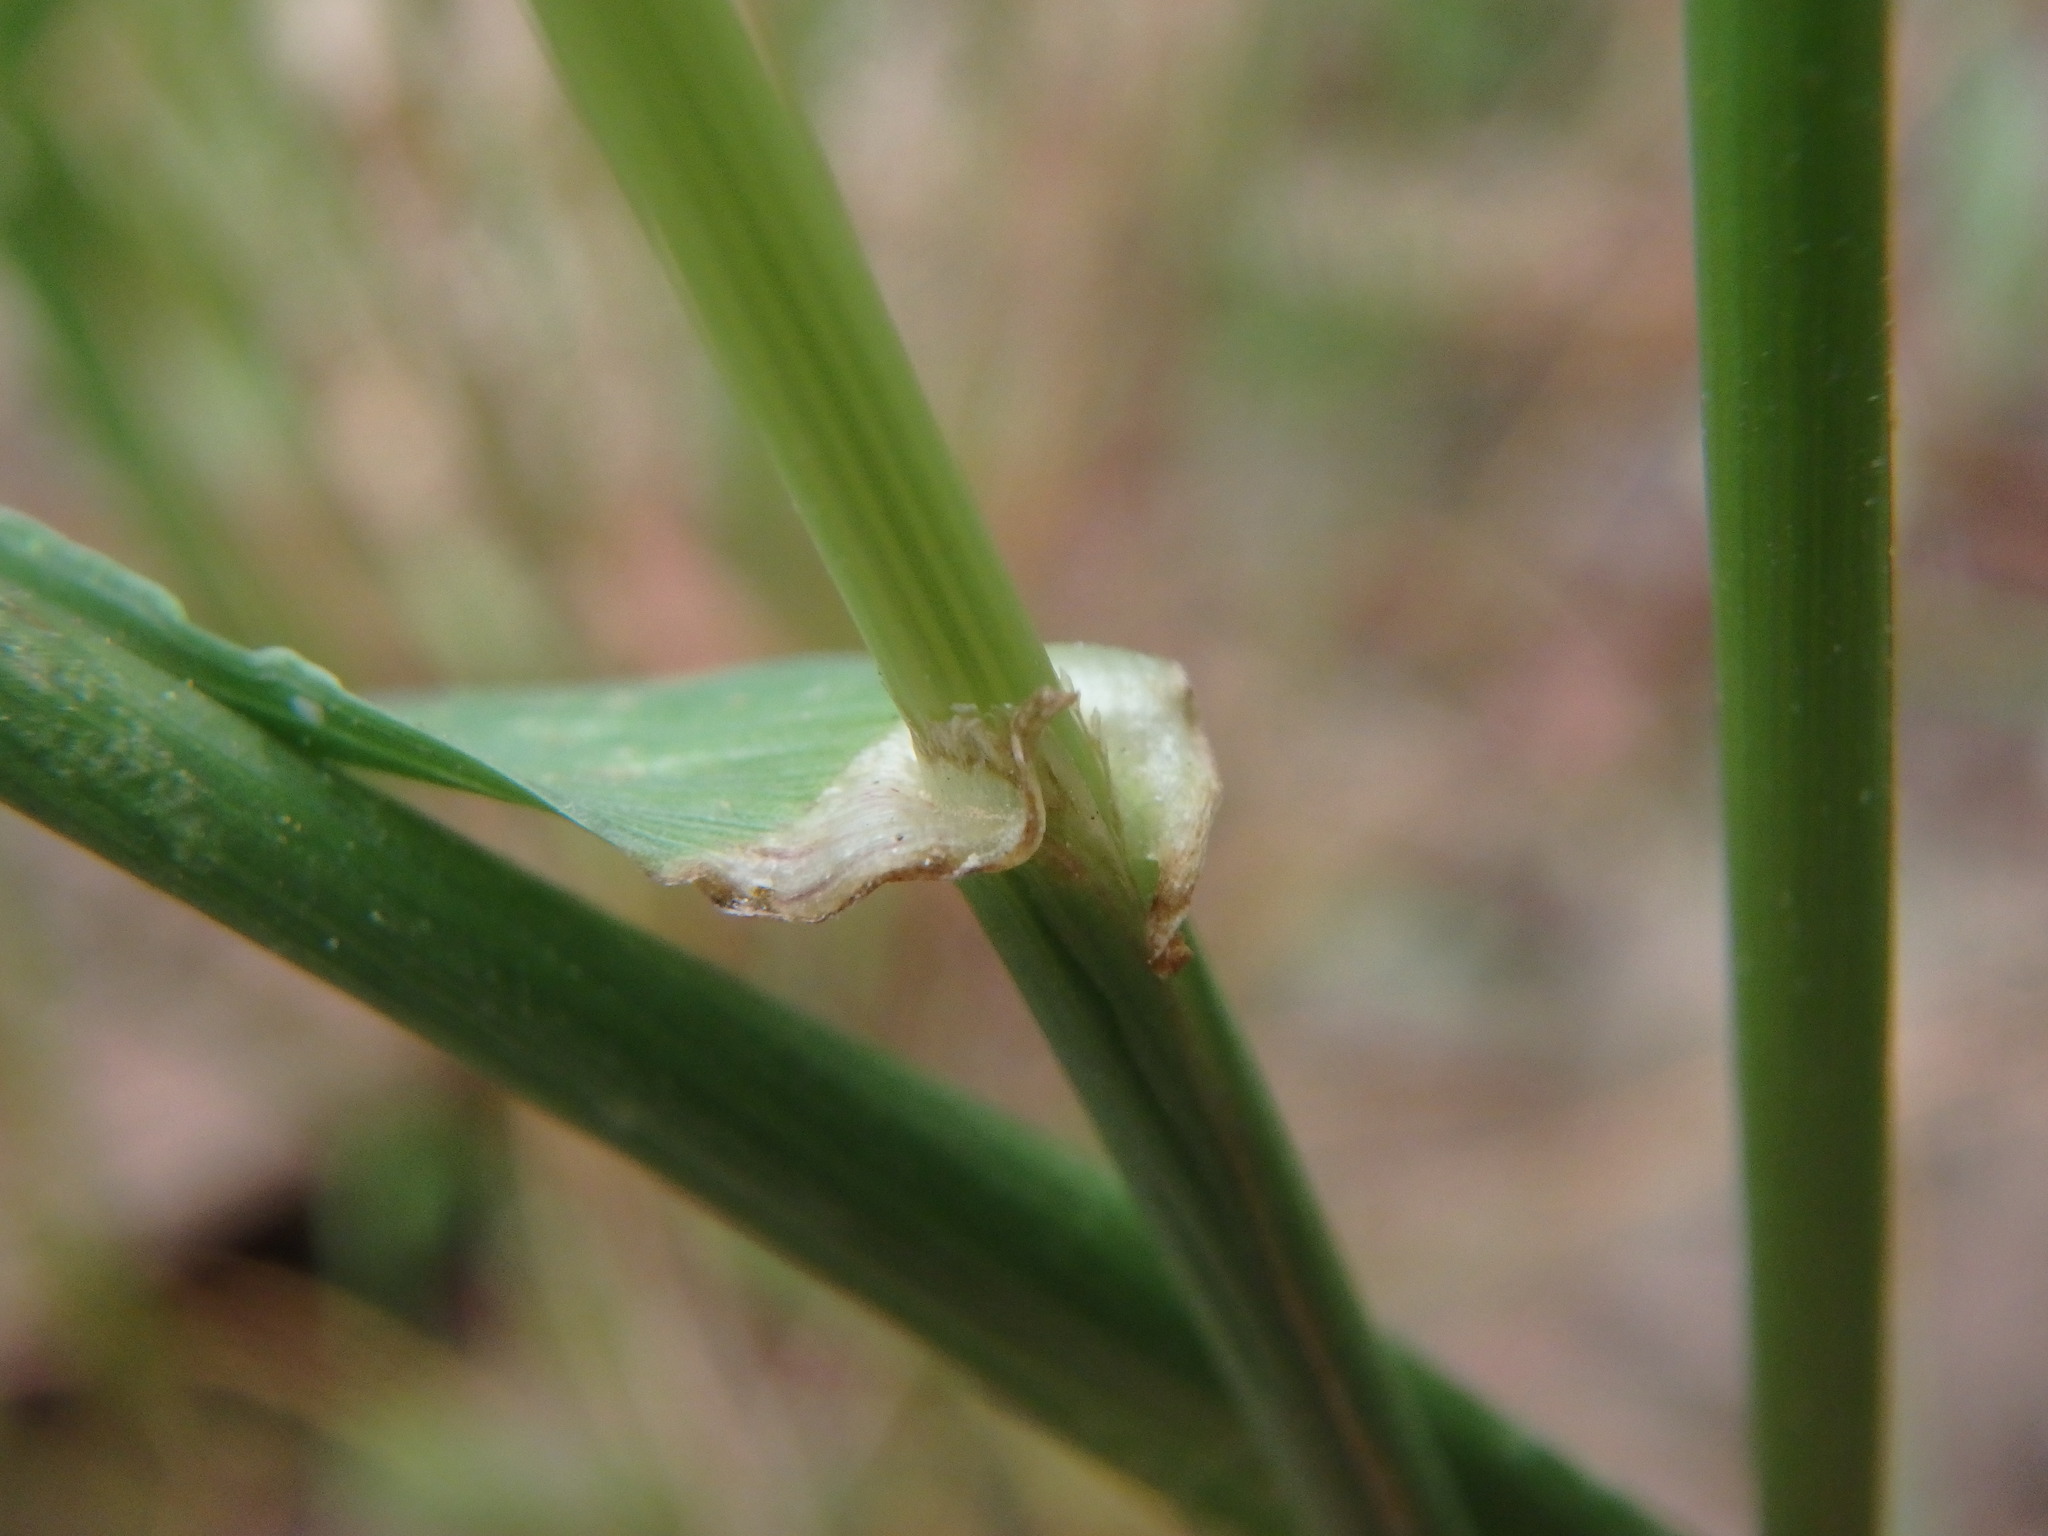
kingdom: Plantae
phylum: Tracheophyta
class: Liliopsida
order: Poales
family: Poaceae
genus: Lolium
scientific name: Lolium perenne
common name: Perennial ryegrass
